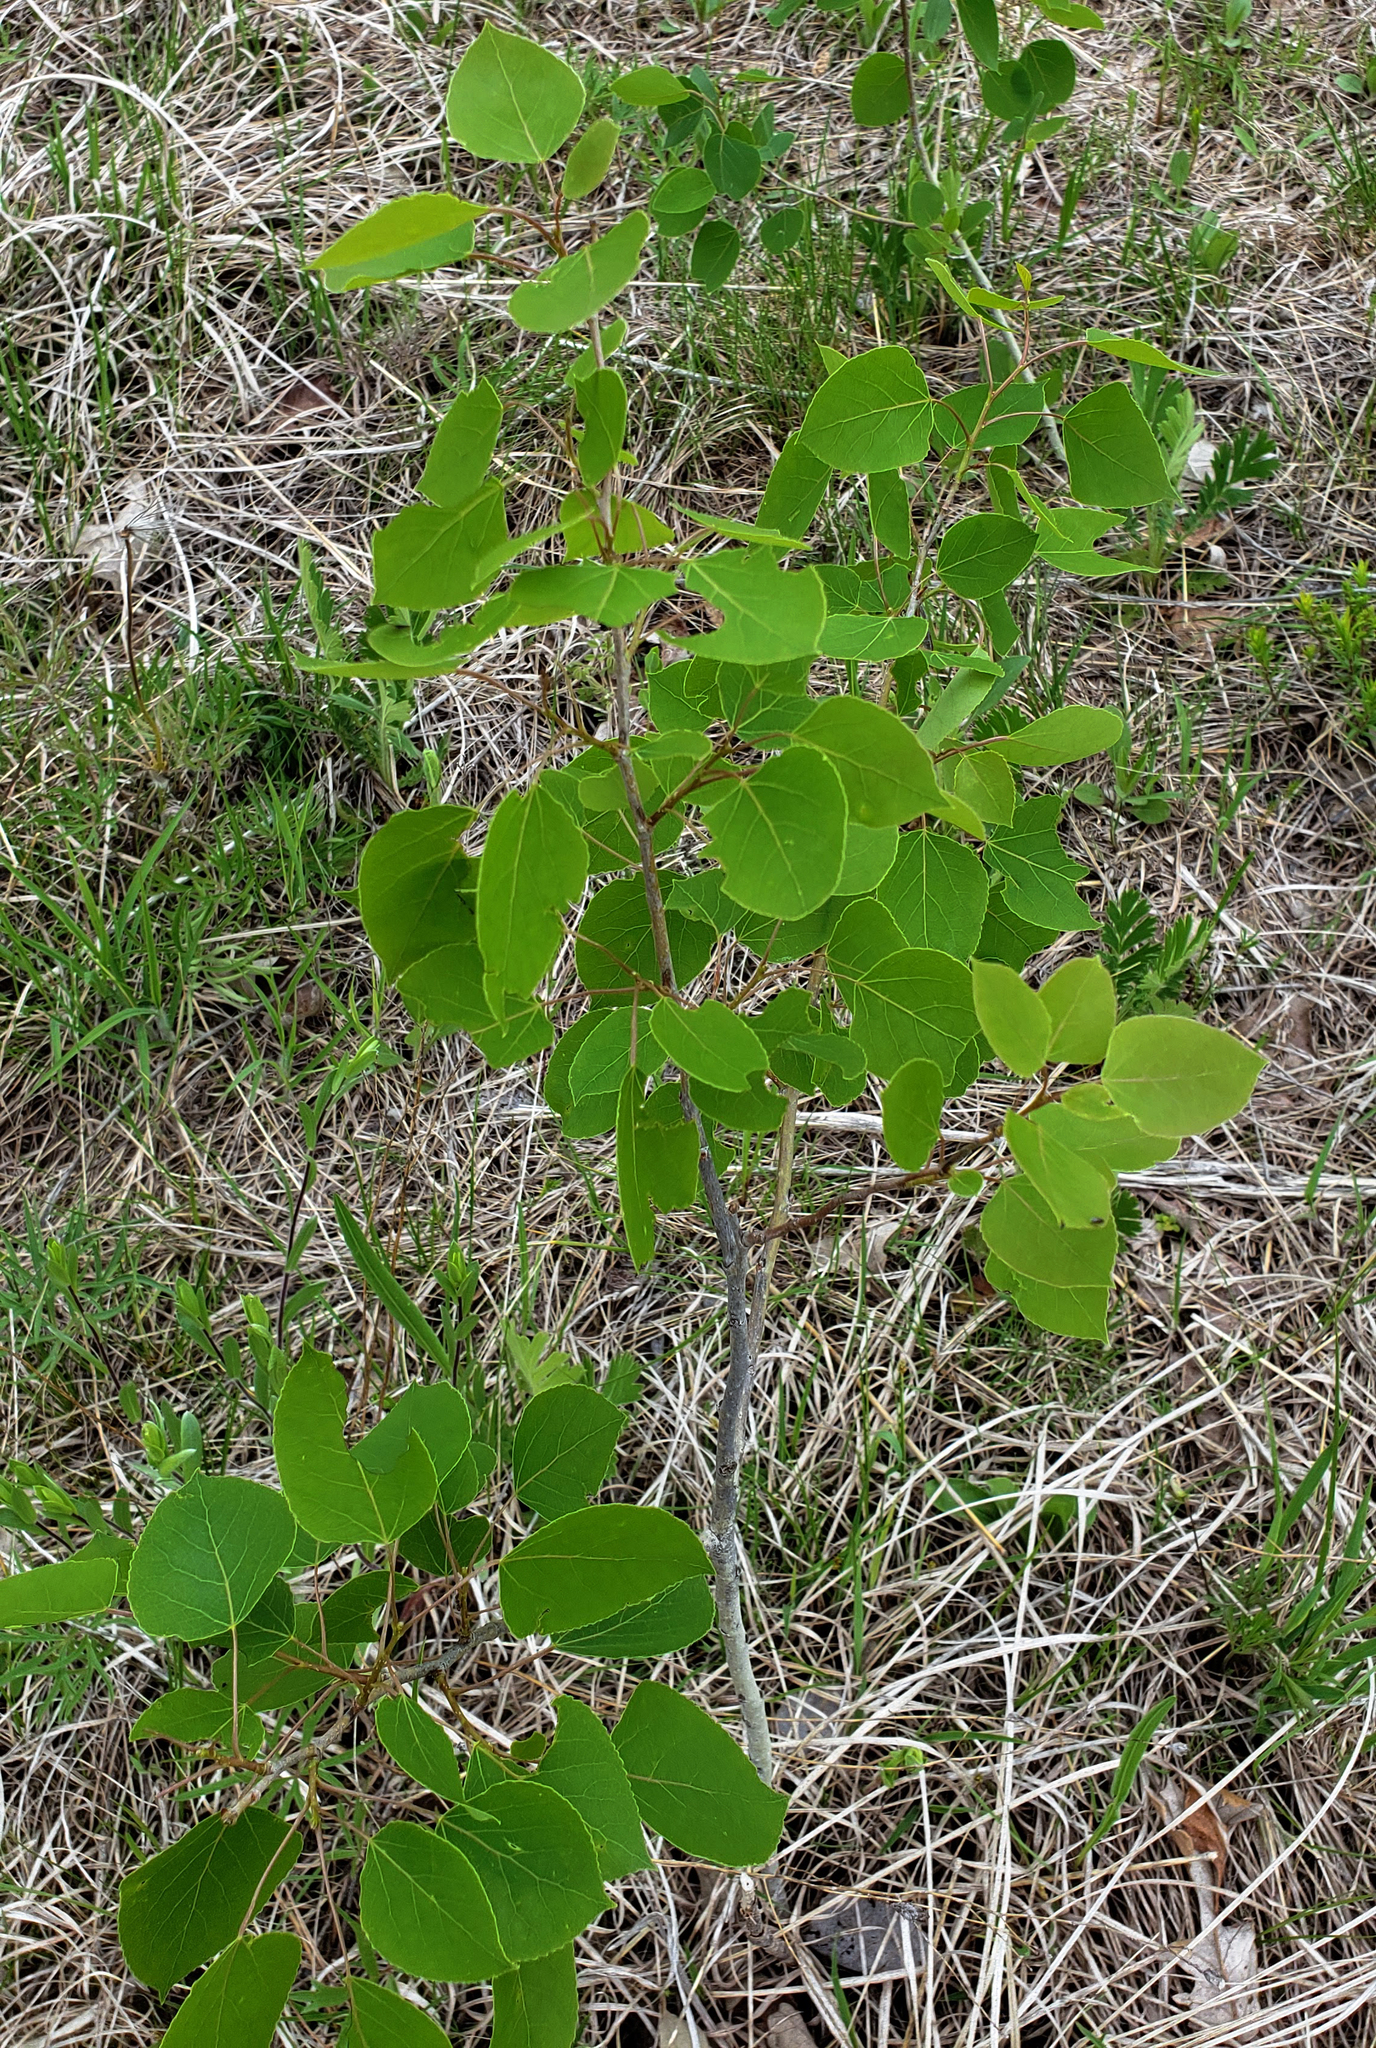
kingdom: Plantae
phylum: Tracheophyta
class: Magnoliopsida
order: Malpighiales
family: Salicaceae
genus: Populus
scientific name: Populus tremuloides
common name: Quaking aspen
